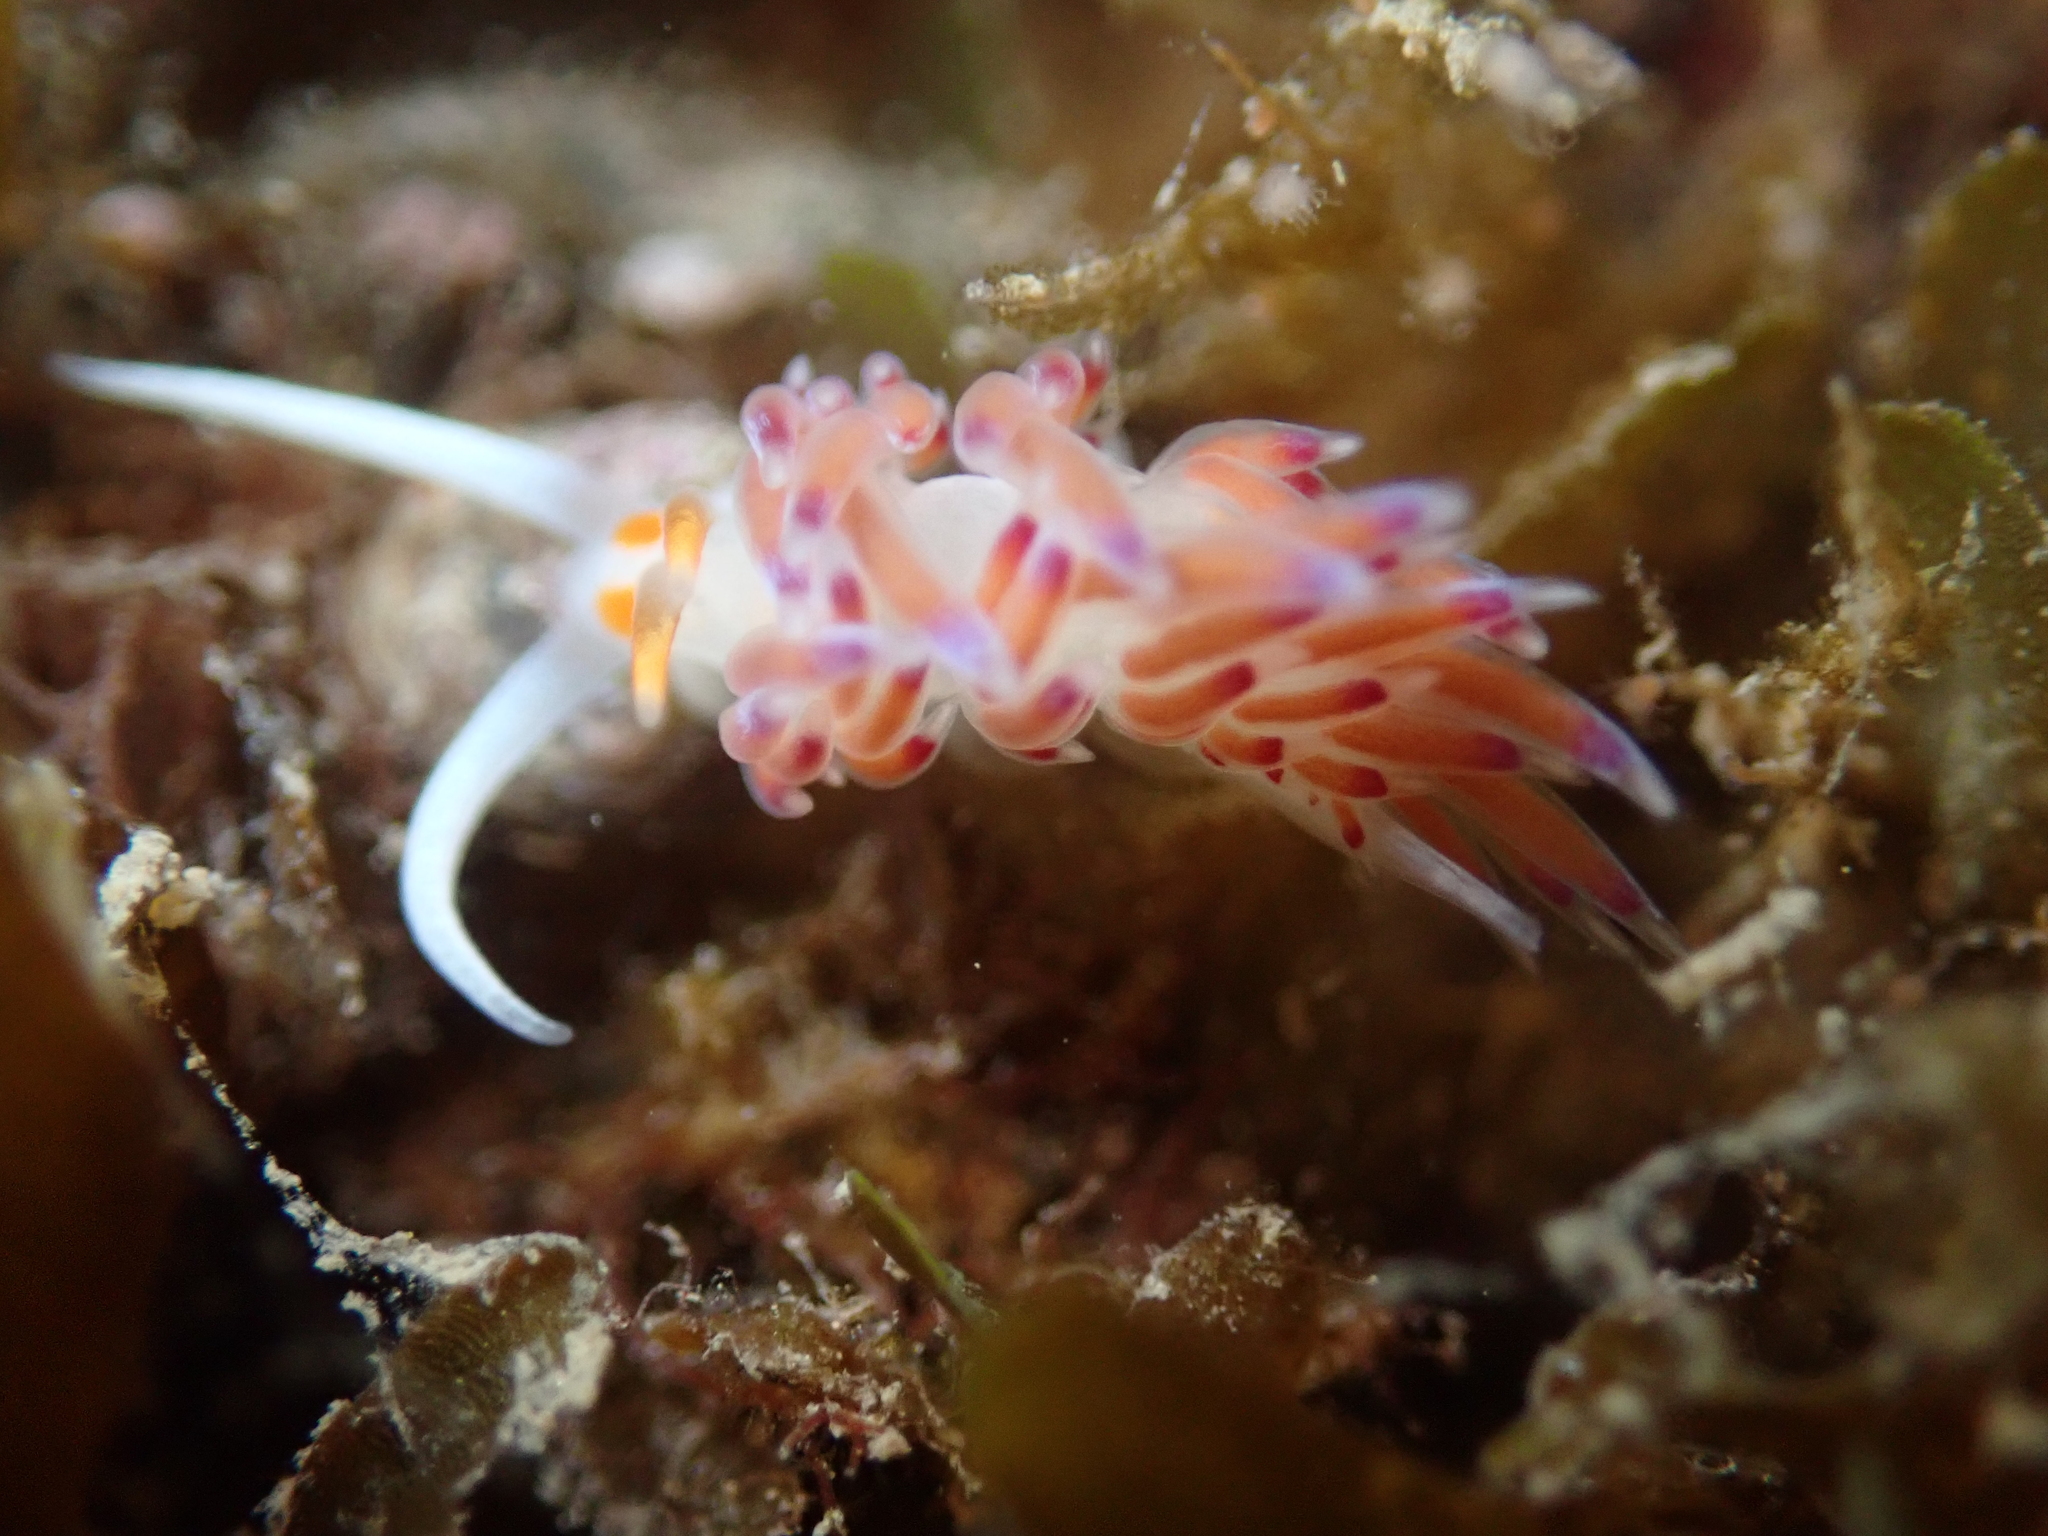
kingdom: Animalia
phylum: Mollusca
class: Gastropoda
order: Nudibranchia
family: Facelinidae
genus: Cratena
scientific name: Cratena peregrina
